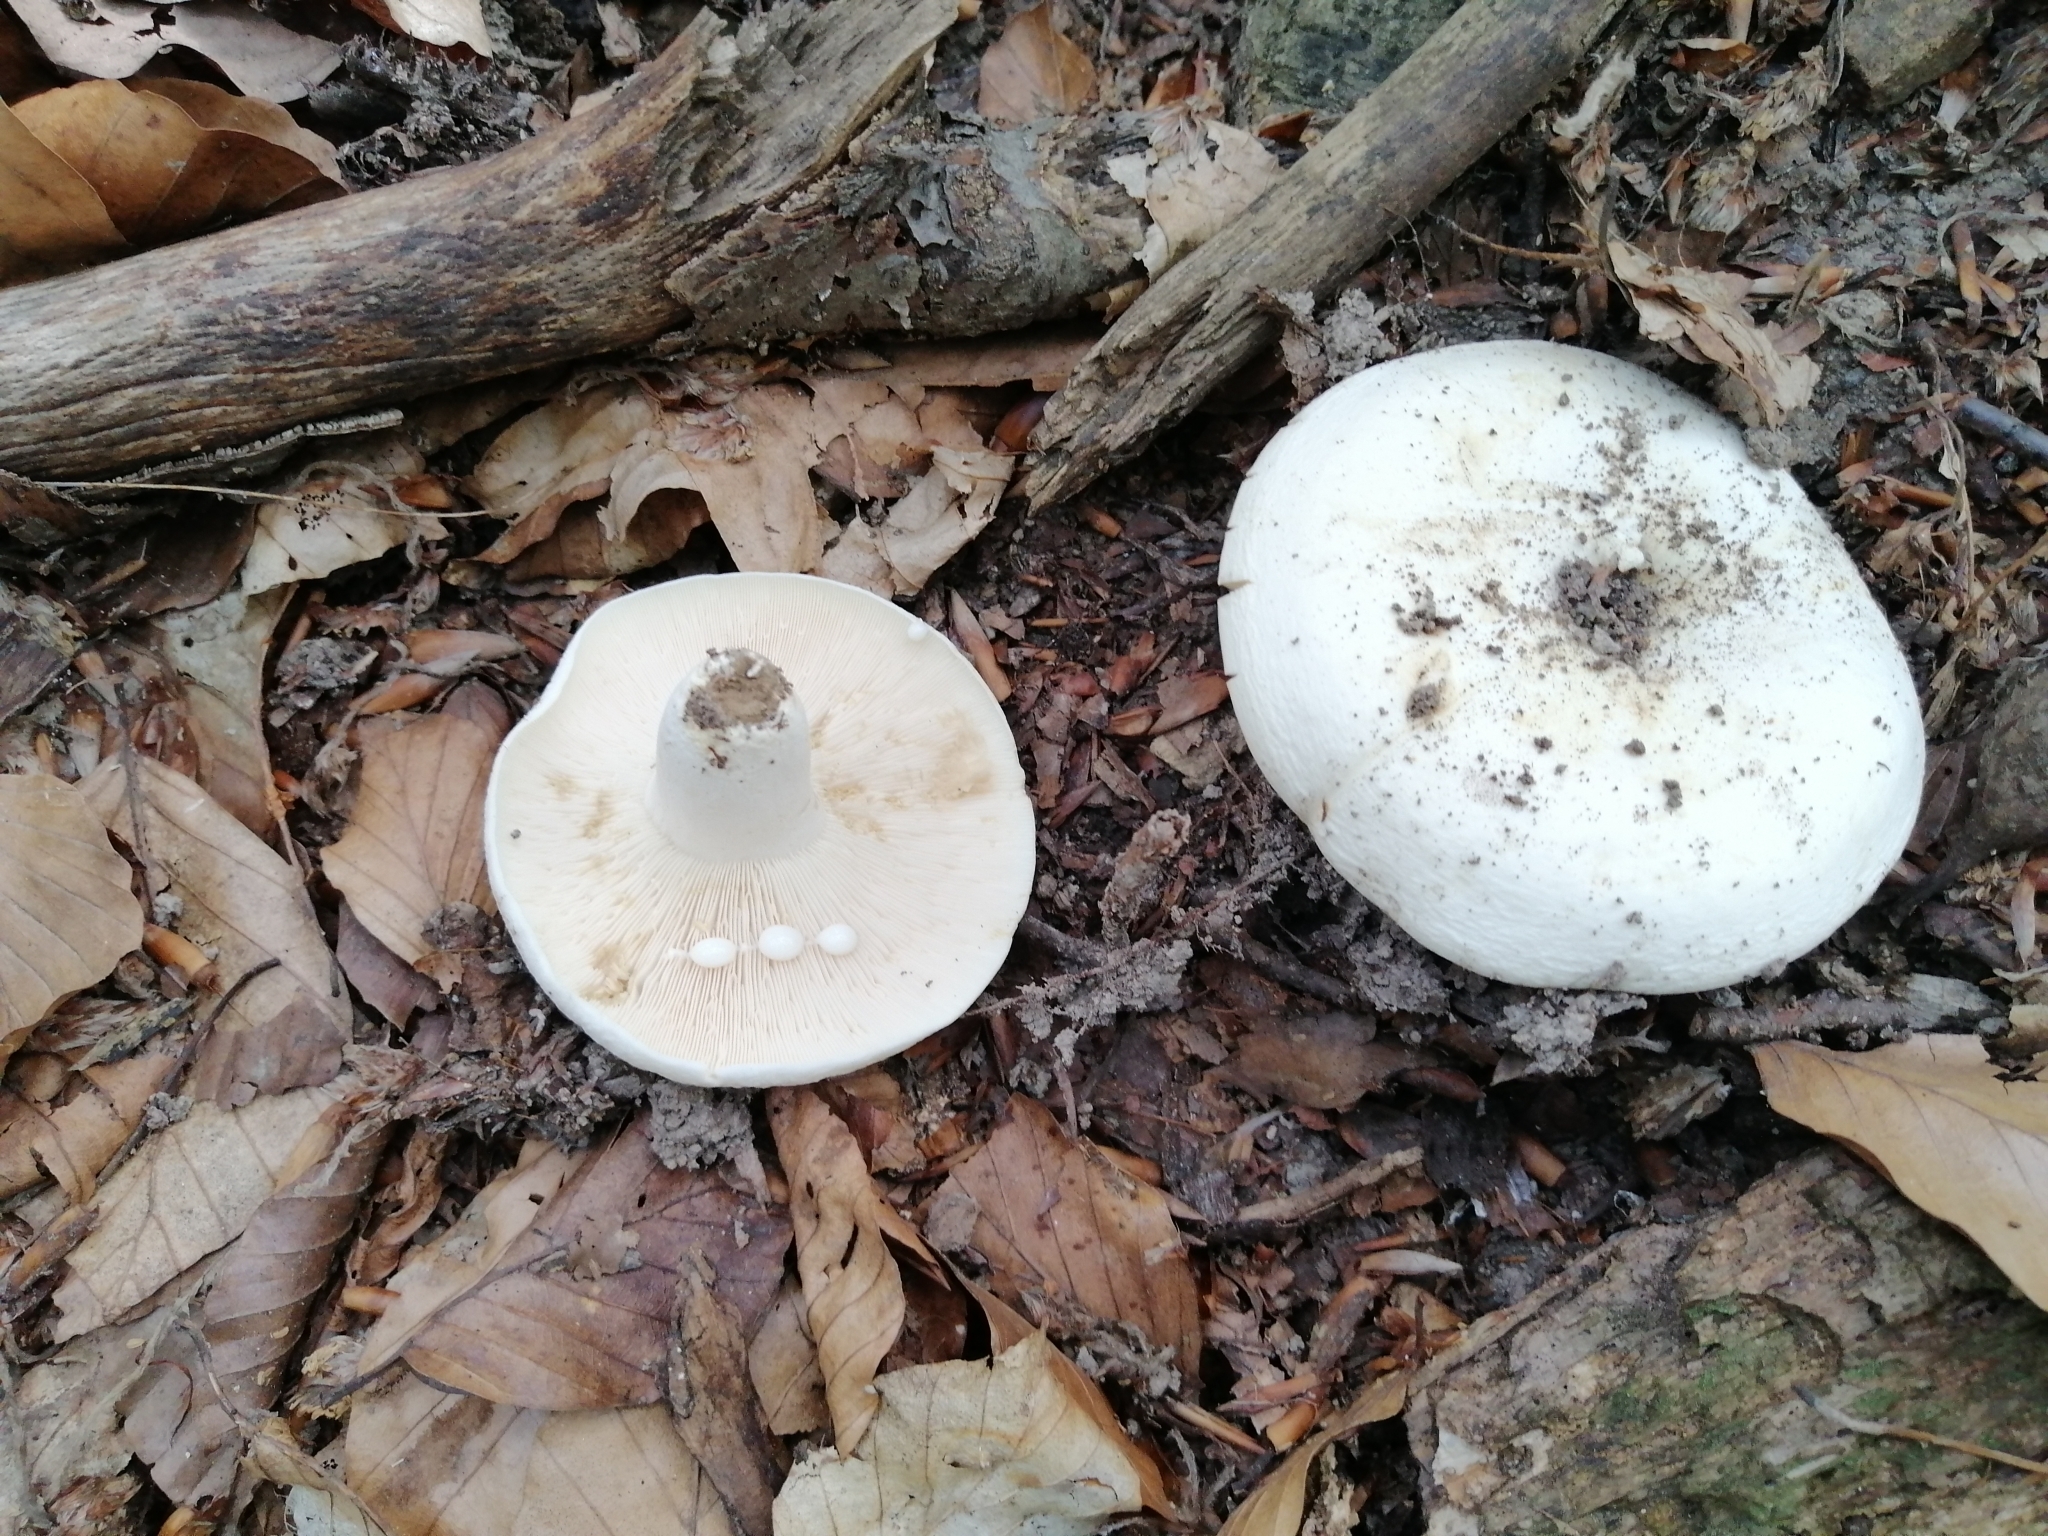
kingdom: Fungi
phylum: Basidiomycota
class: Agaricomycetes
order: Russulales
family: Russulaceae
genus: Lactifluus
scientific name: Lactifluus piperatus
